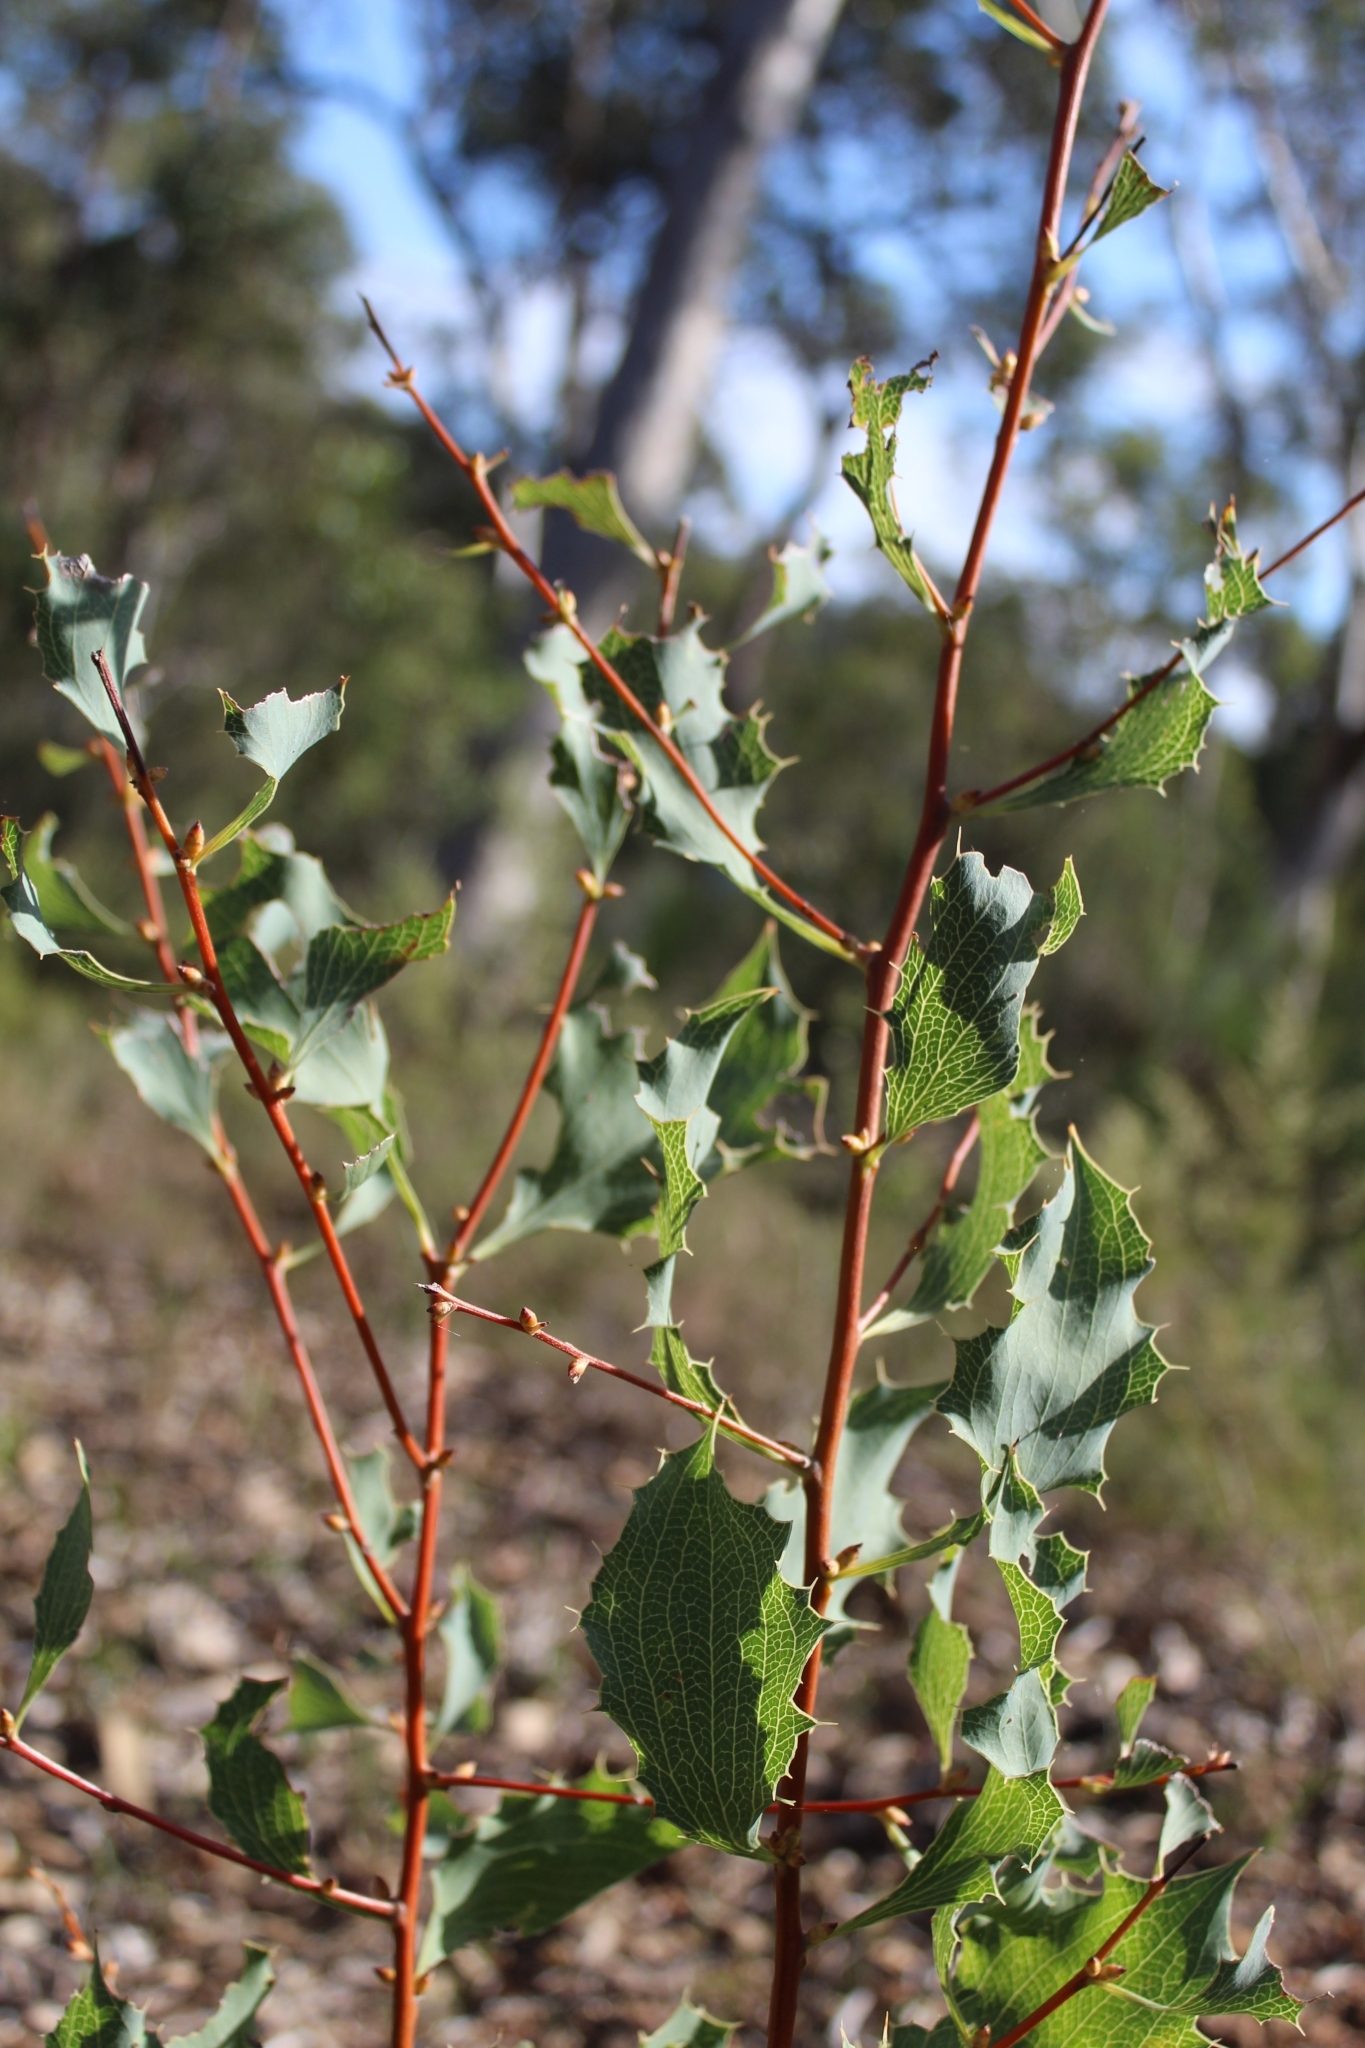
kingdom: Plantae
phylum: Tracheophyta
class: Magnoliopsida
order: Proteales
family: Proteaceae
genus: Hakea
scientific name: Hakea undulata
